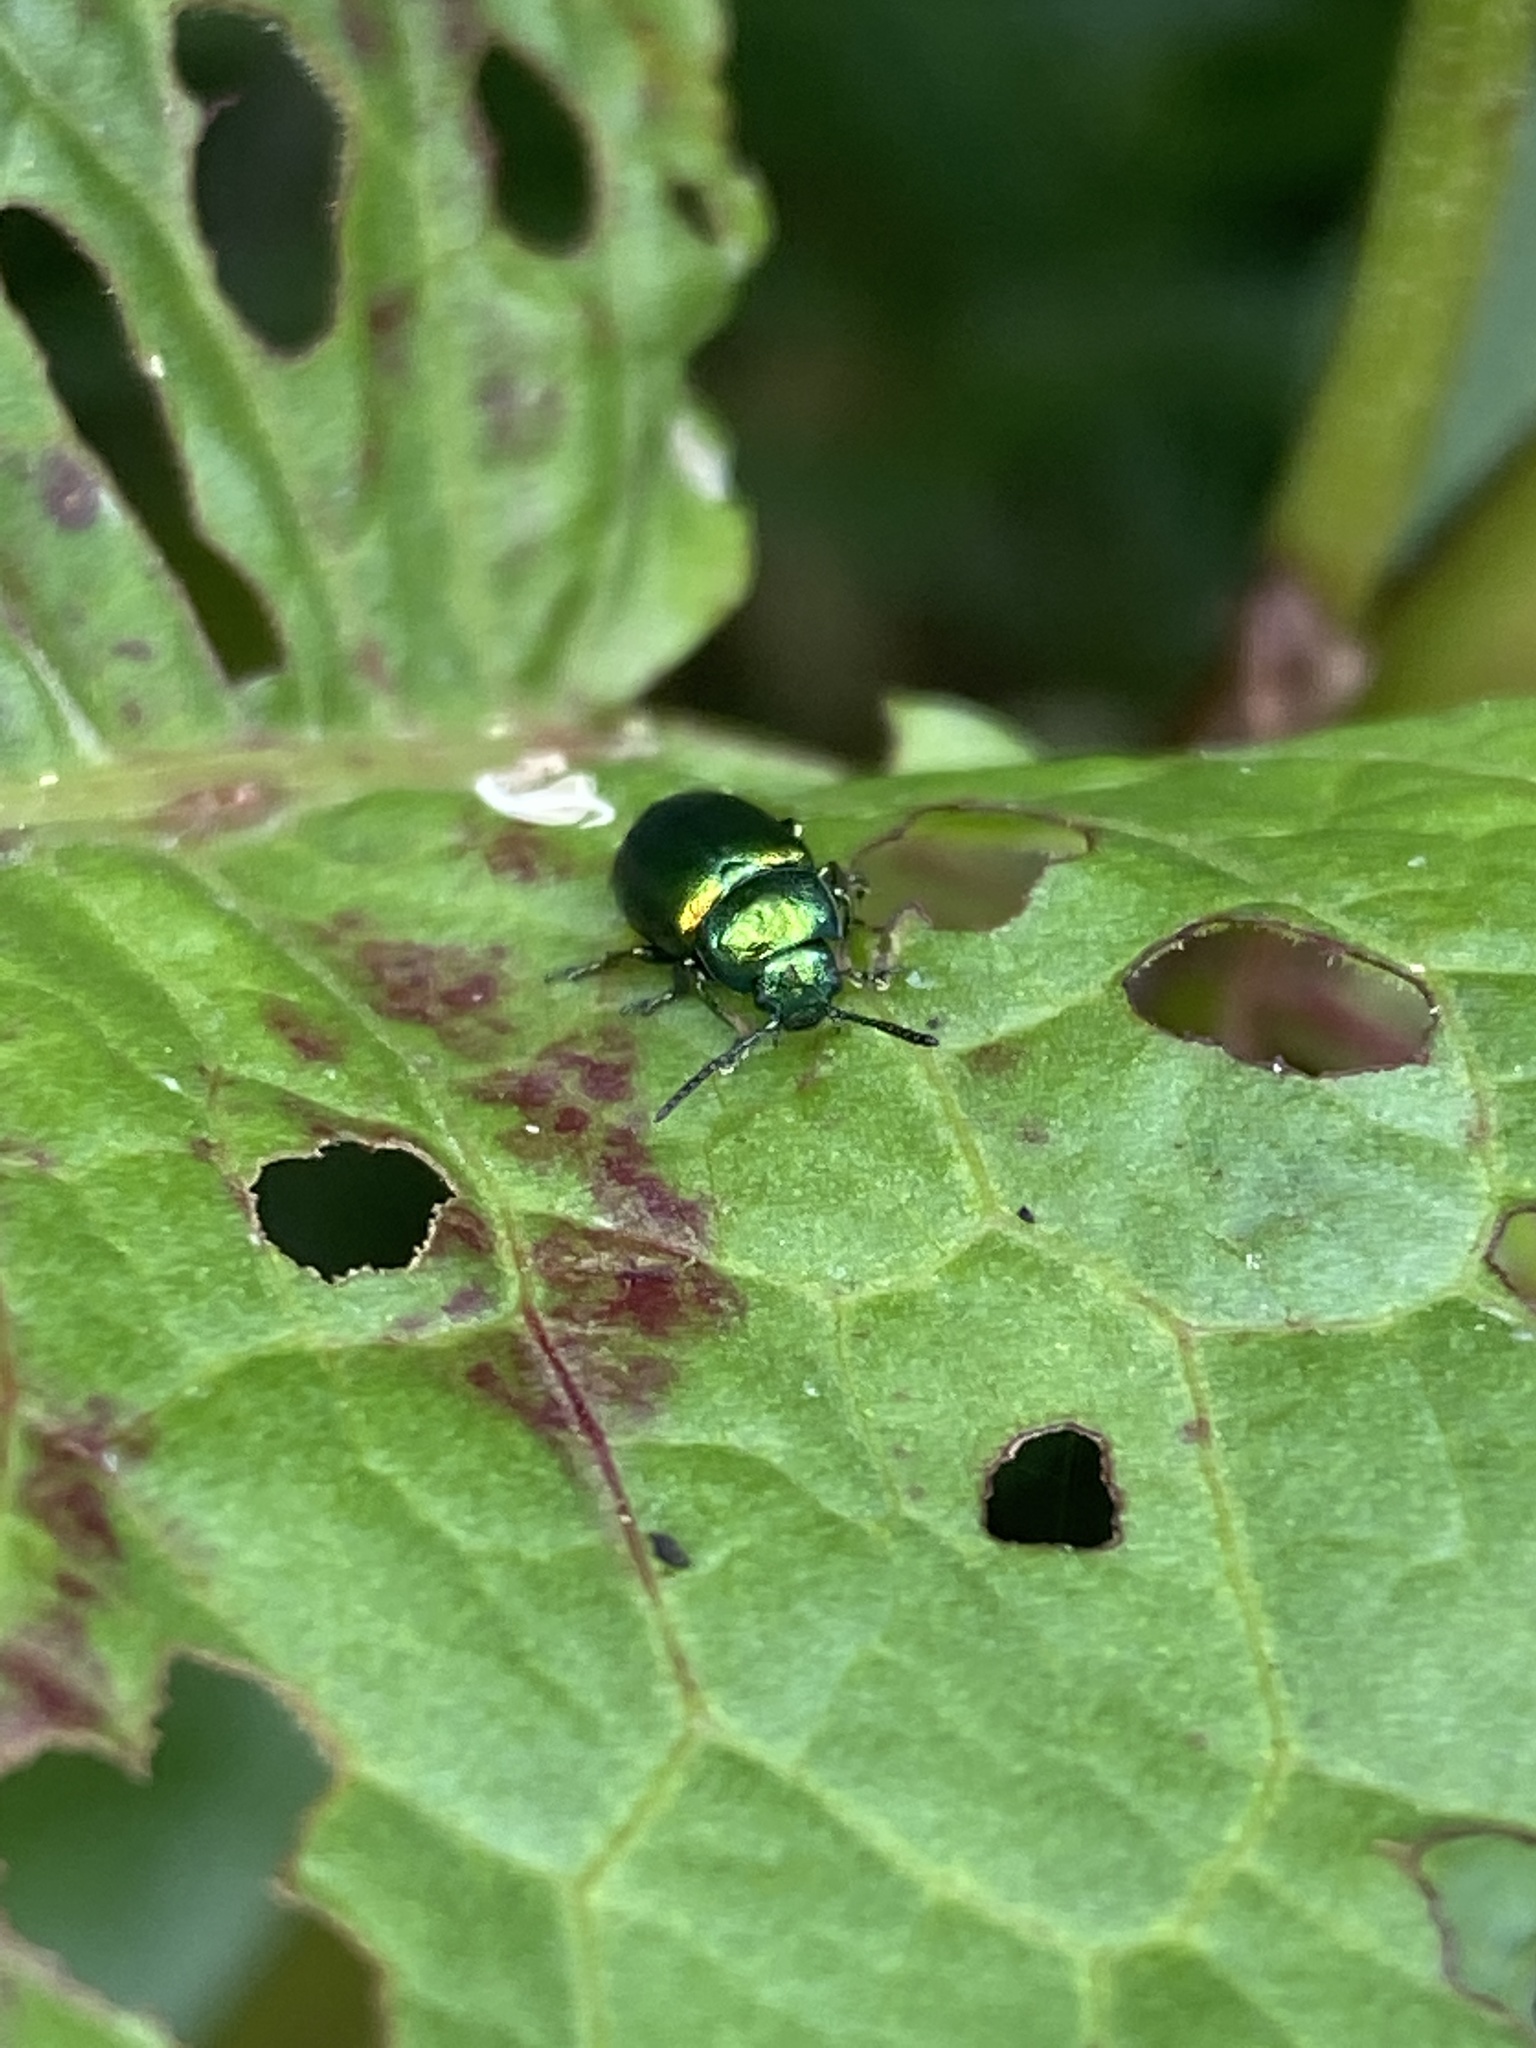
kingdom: Animalia
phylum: Arthropoda
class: Insecta
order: Coleoptera
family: Chrysomelidae
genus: Gastrophysa
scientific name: Gastrophysa viridula
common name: Green dock beetle
